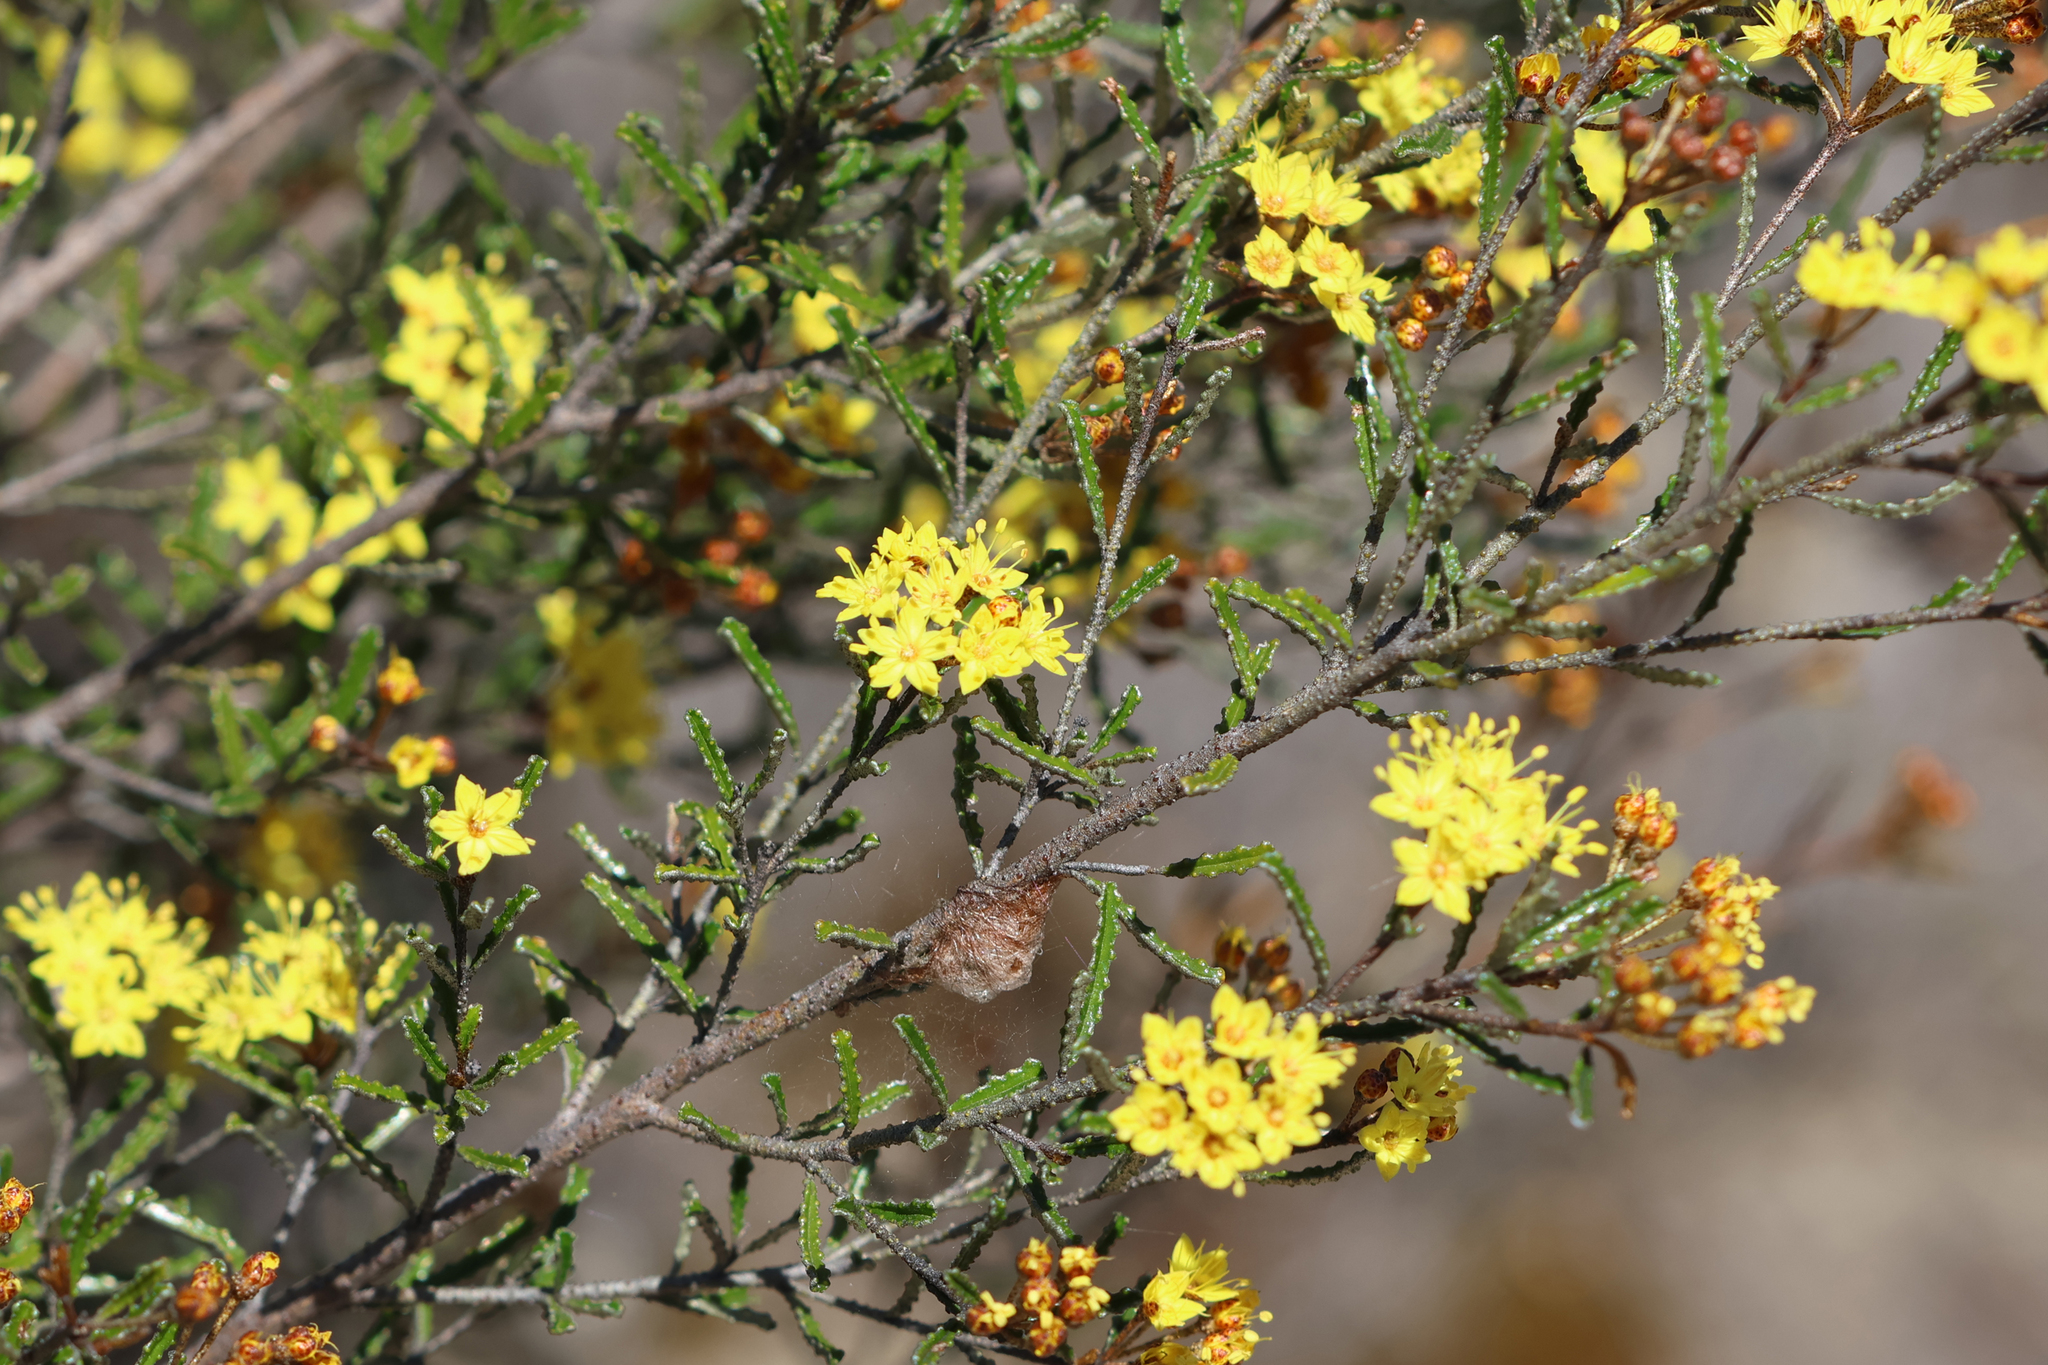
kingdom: Plantae
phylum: Tracheophyta
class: Magnoliopsida
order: Sapindales
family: Rutaceae
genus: Phebalium
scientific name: Phebalium bullatum
